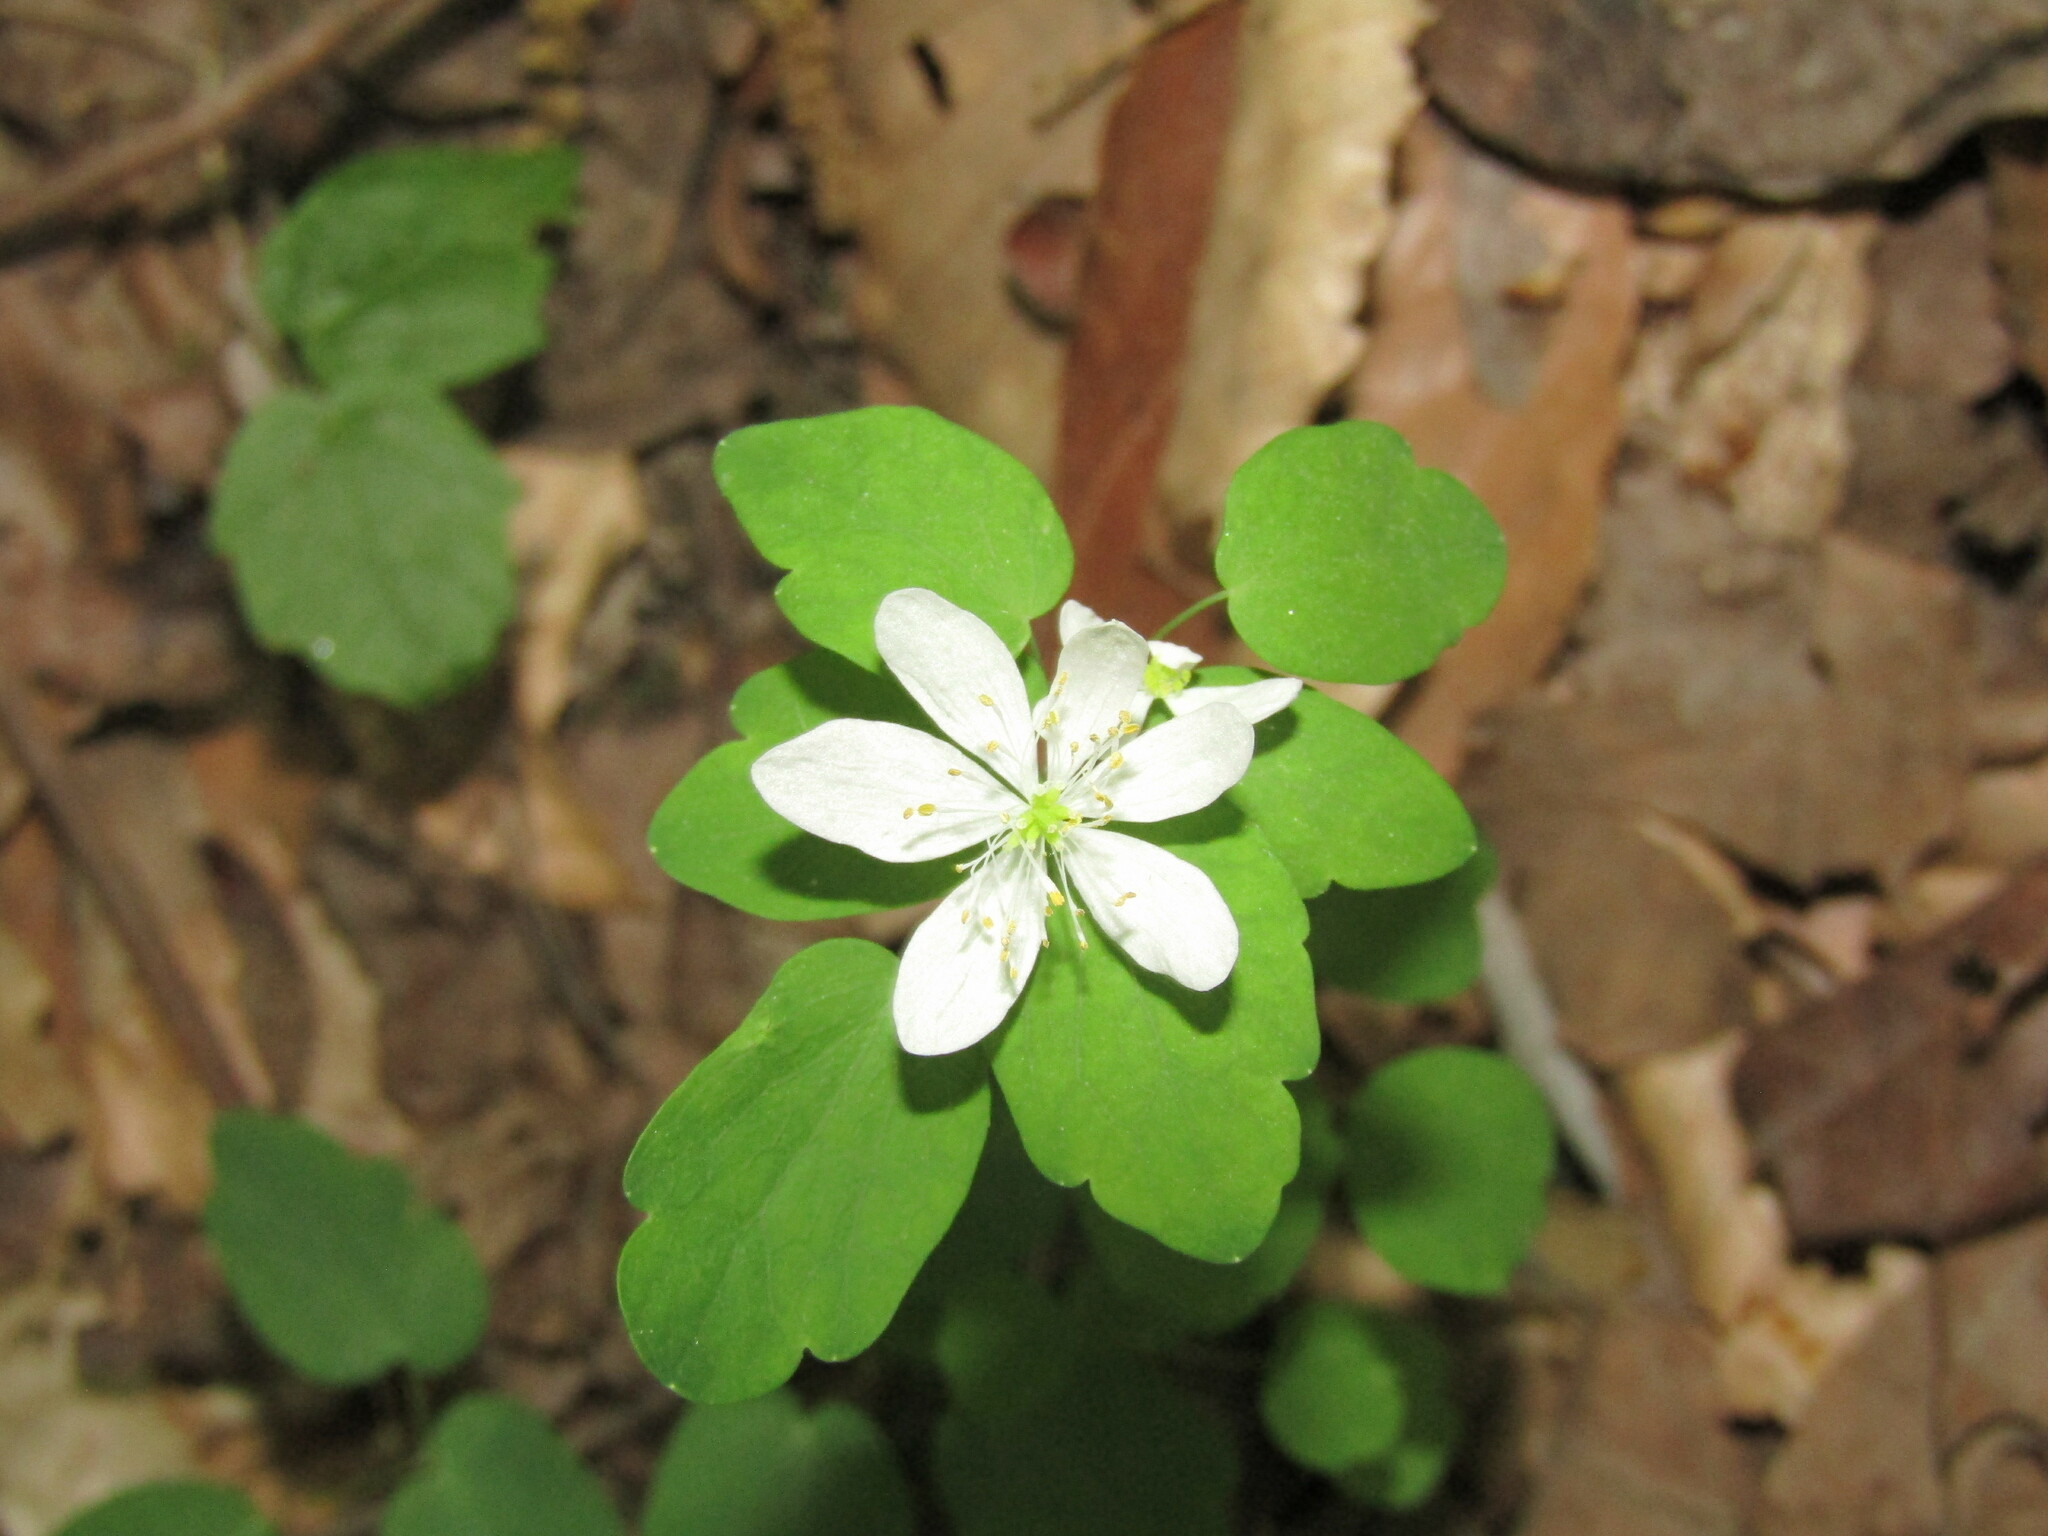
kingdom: Plantae
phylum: Tracheophyta
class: Magnoliopsida
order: Ranunculales
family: Ranunculaceae
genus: Thalictrum
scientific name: Thalictrum thalictroides
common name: Rue-anemone
